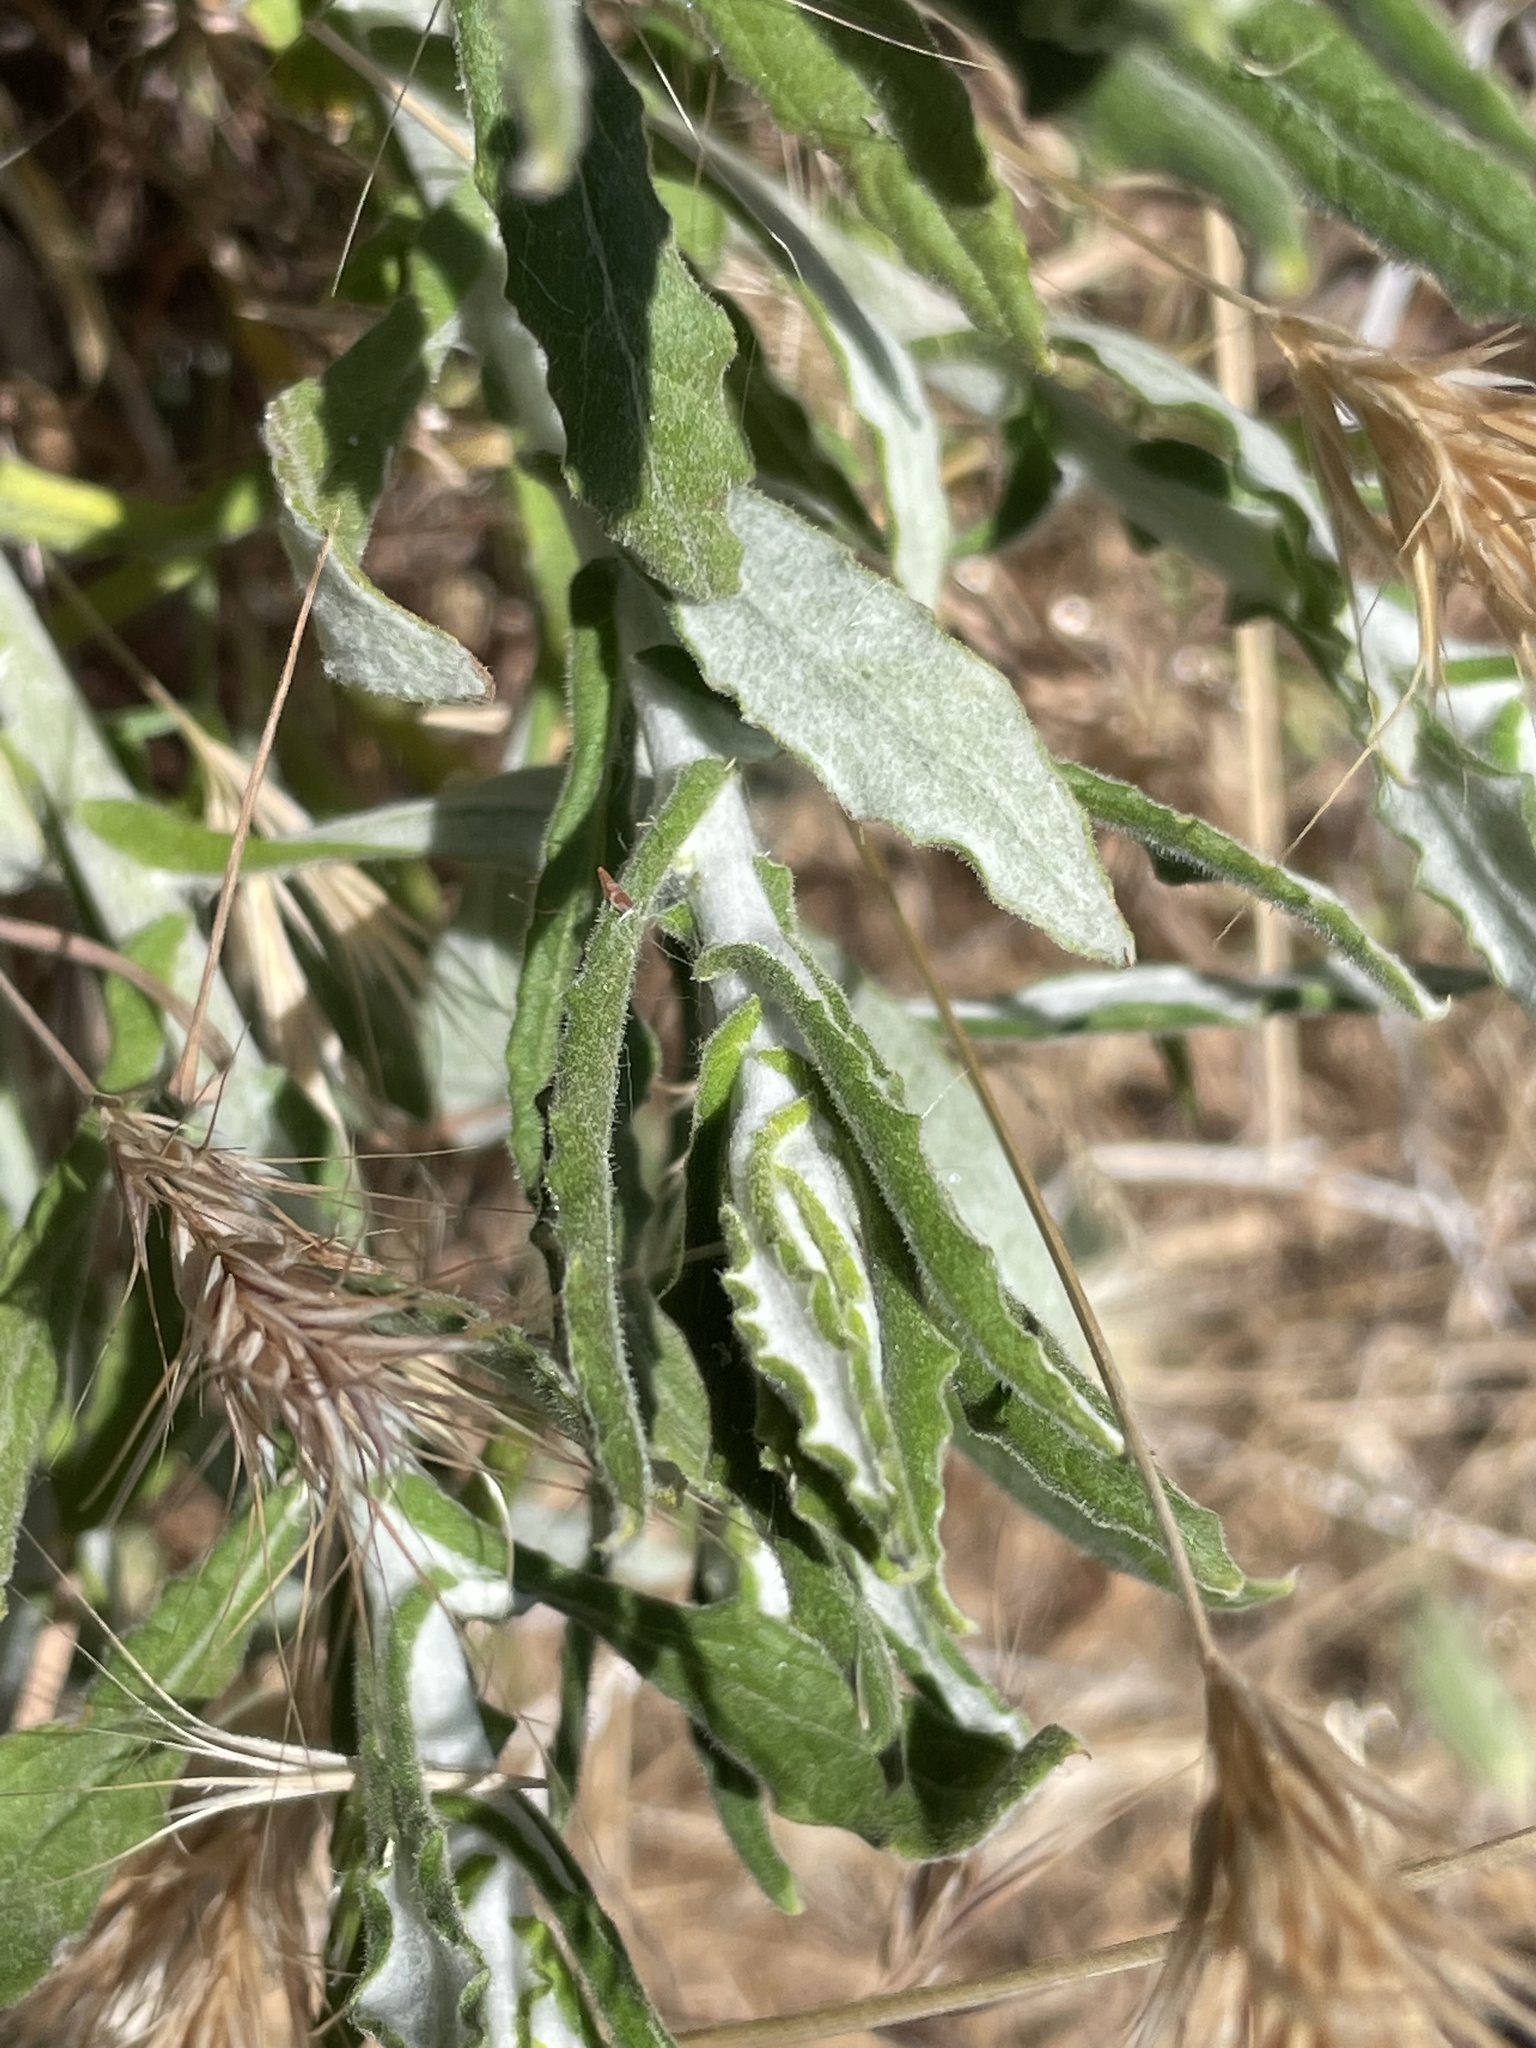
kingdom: Plantae
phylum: Tracheophyta
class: Magnoliopsida
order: Asterales
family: Asteraceae
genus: Pseudognaphalium
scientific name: Pseudognaphalium biolettii
